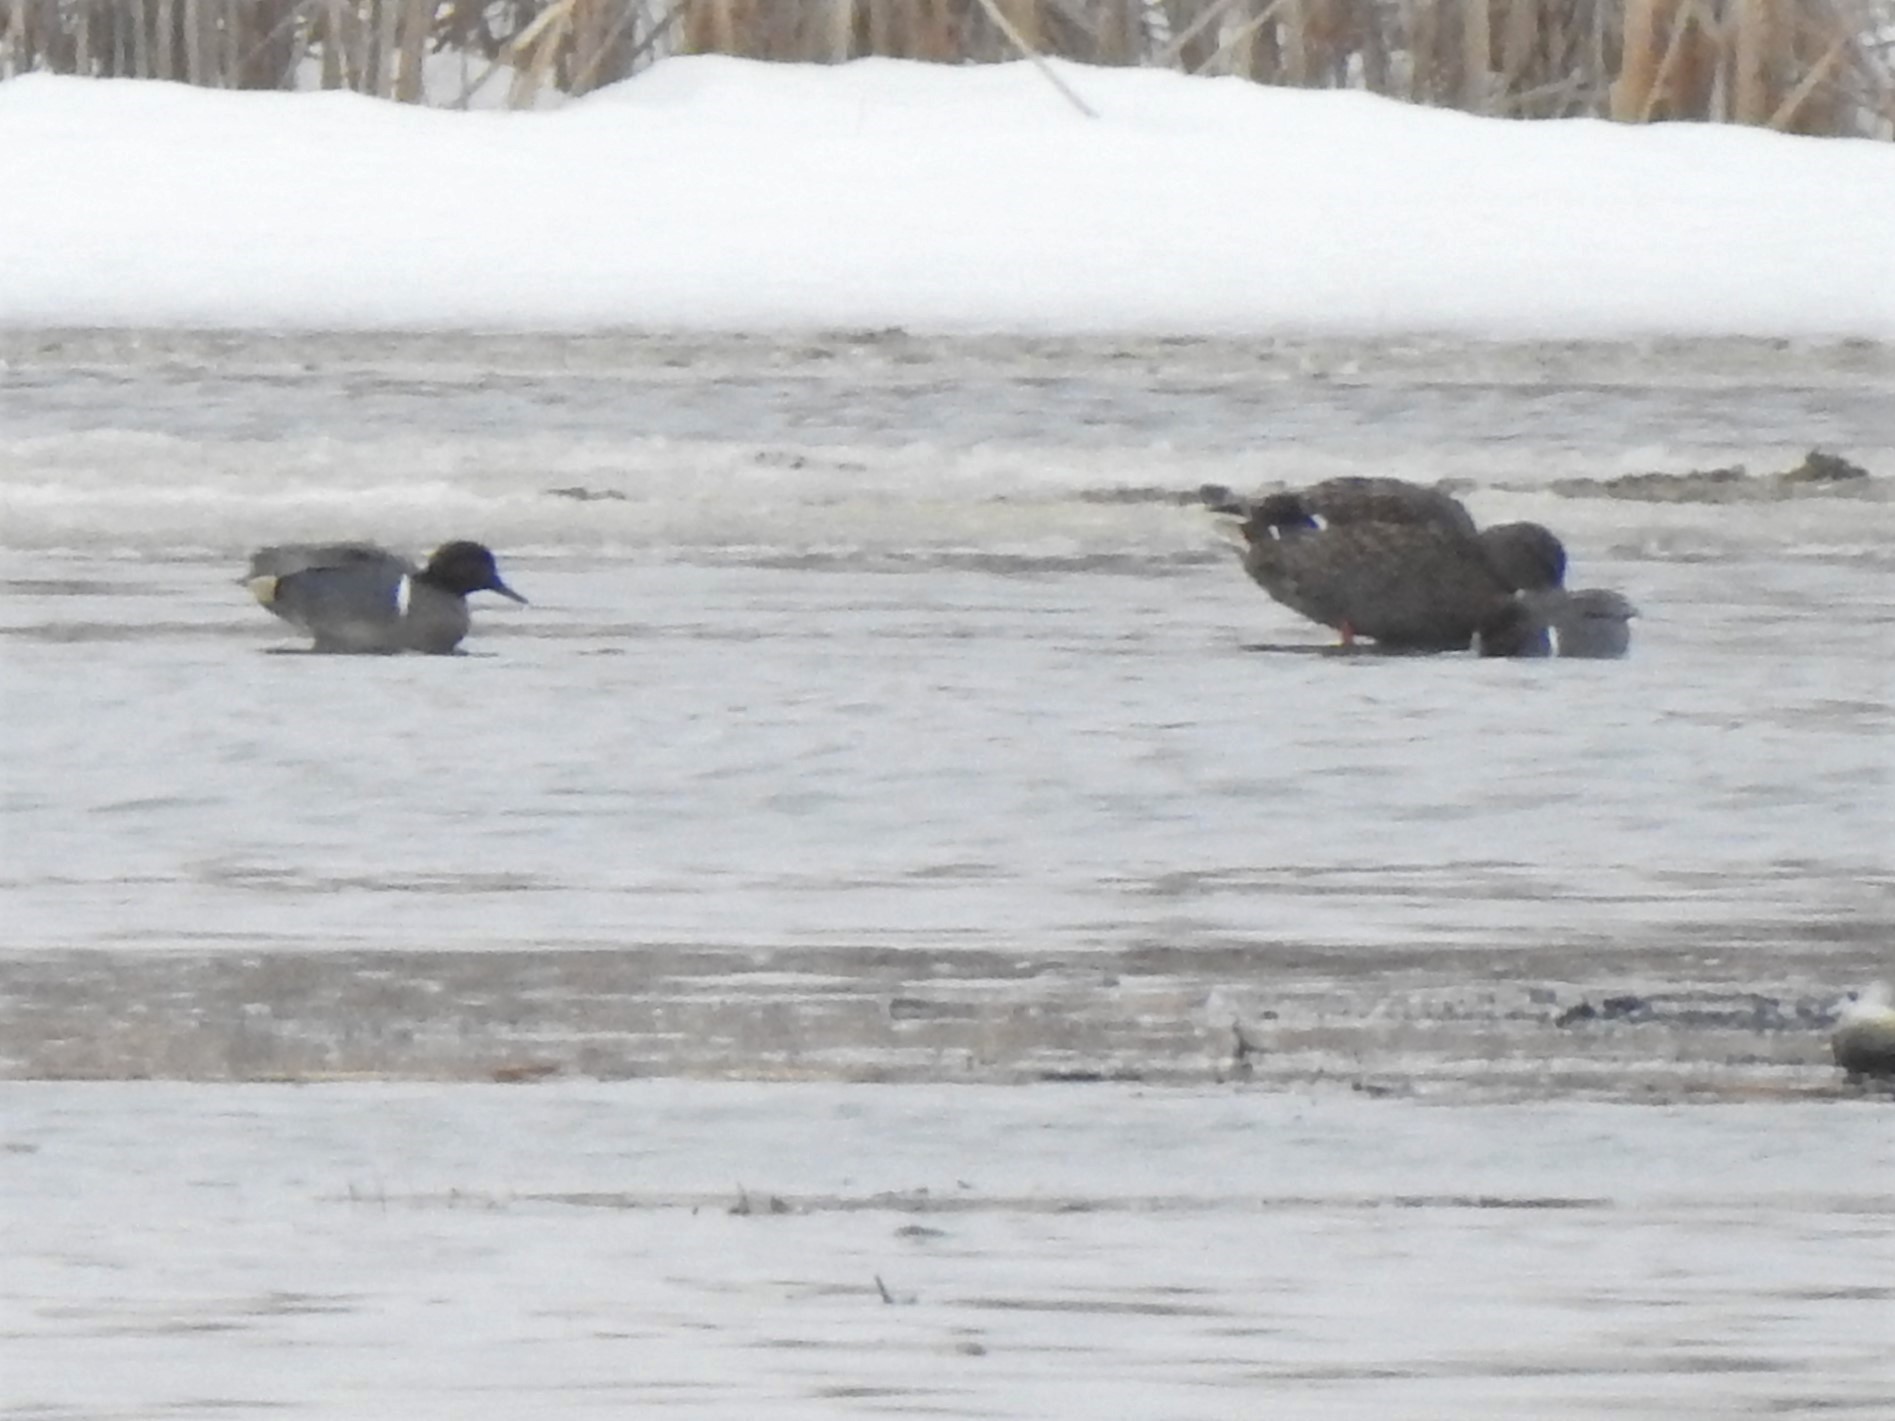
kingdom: Animalia
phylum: Chordata
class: Aves
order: Anseriformes
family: Anatidae
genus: Anas
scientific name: Anas carolinensis
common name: Green-winged teal
